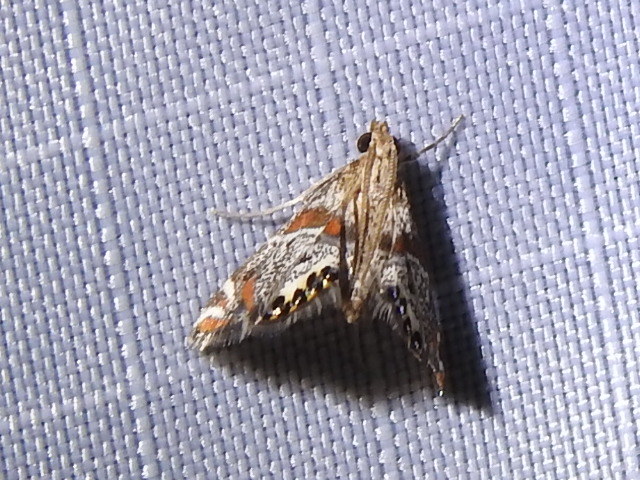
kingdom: Animalia
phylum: Arthropoda
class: Insecta
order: Lepidoptera
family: Crambidae
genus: Petrophila
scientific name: Petrophila jaliscalis
